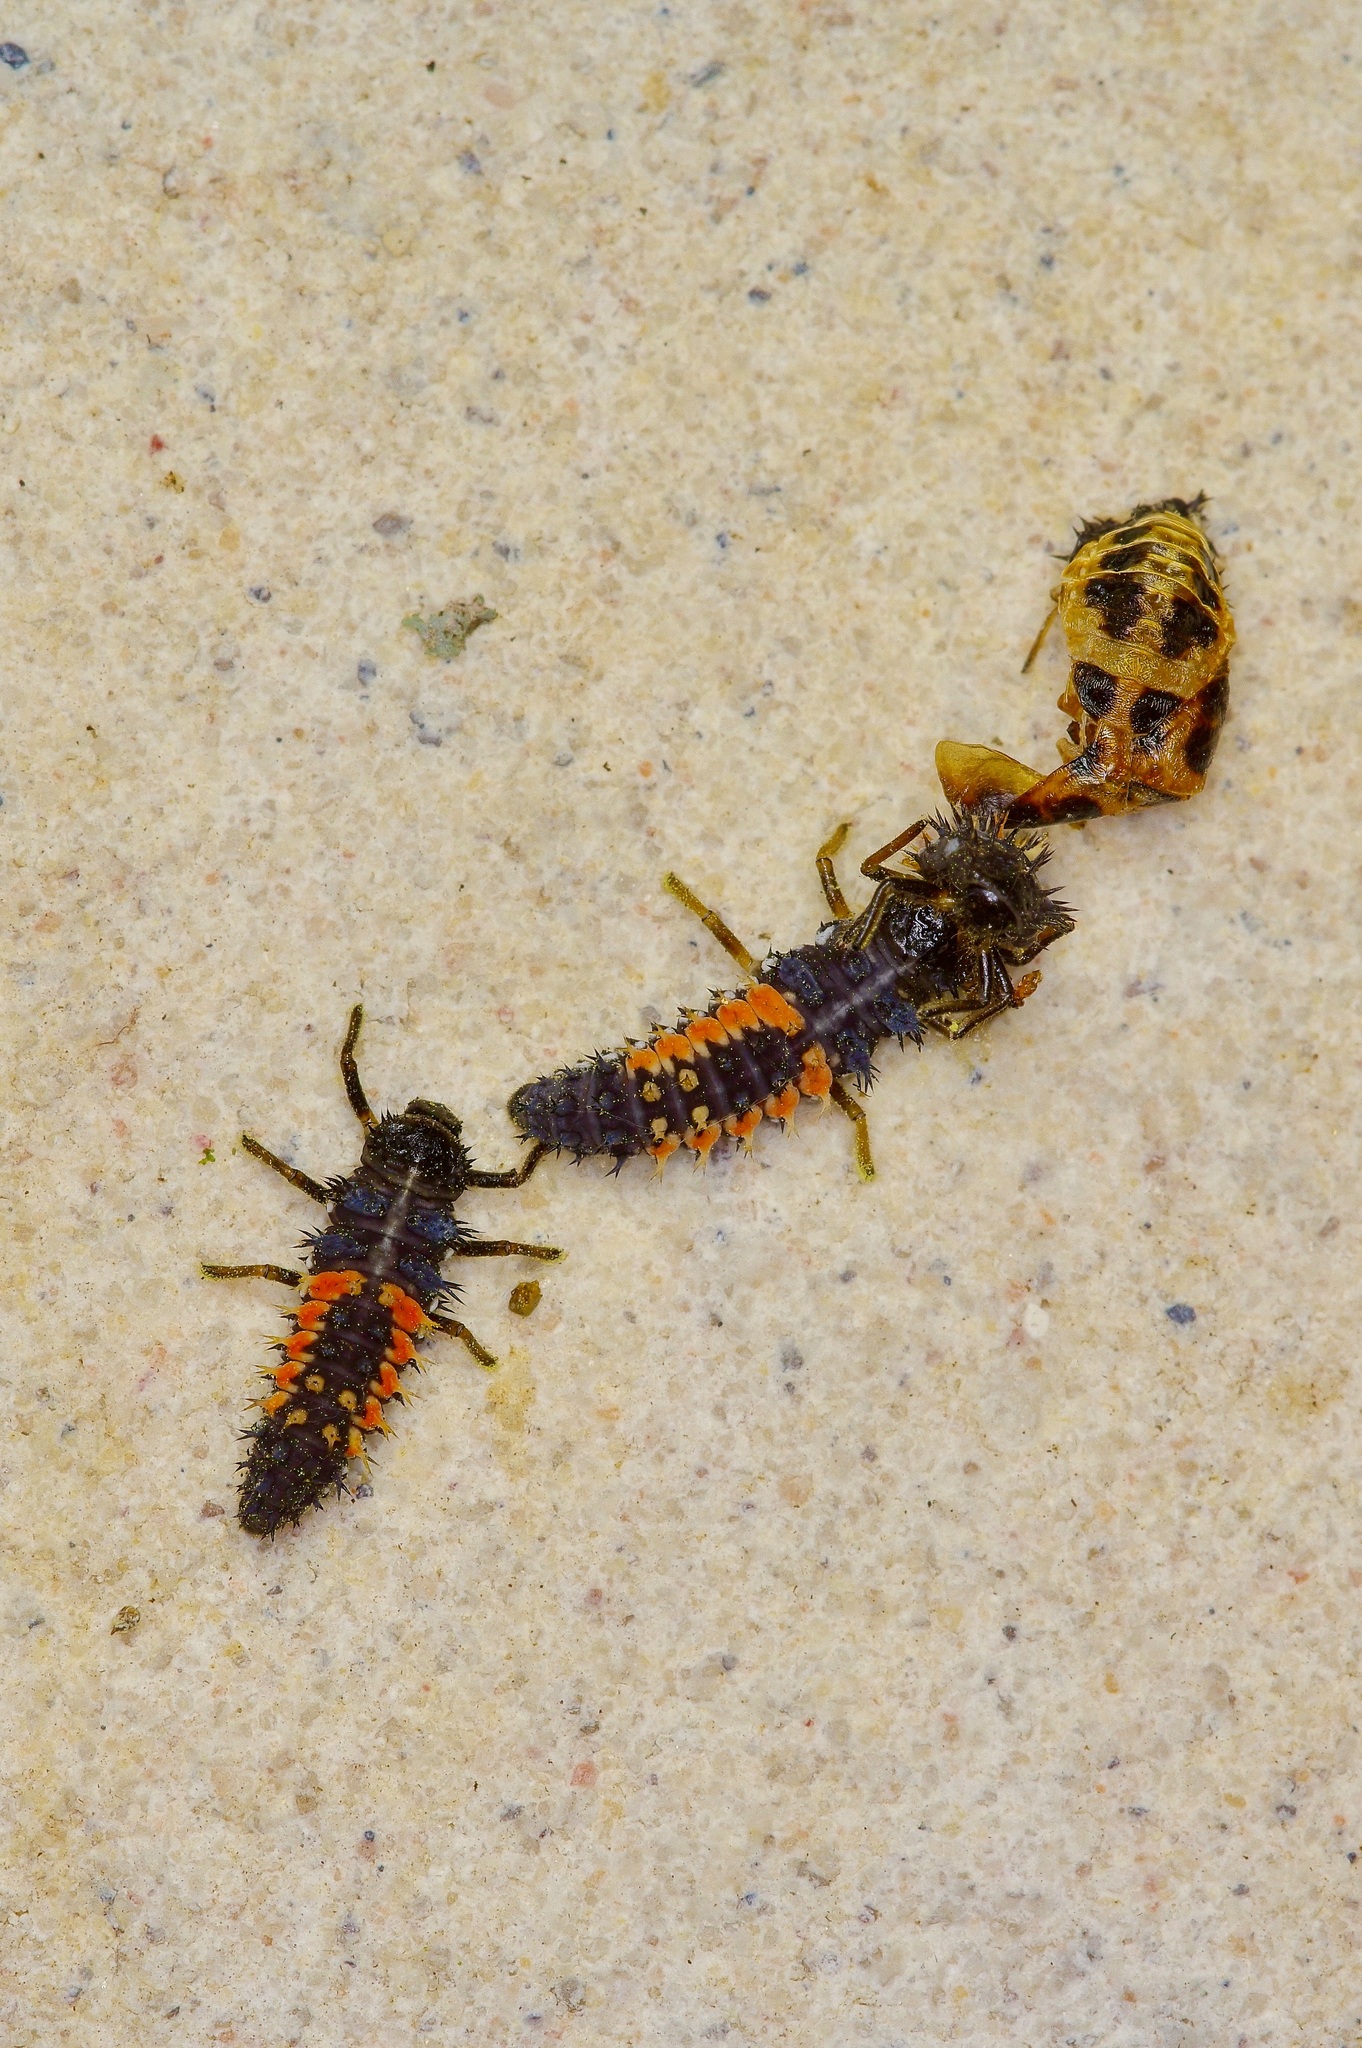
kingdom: Animalia
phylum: Arthropoda
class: Insecta
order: Coleoptera
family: Coccinellidae
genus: Harmonia
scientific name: Harmonia axyridis
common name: Harlequin ladybird
